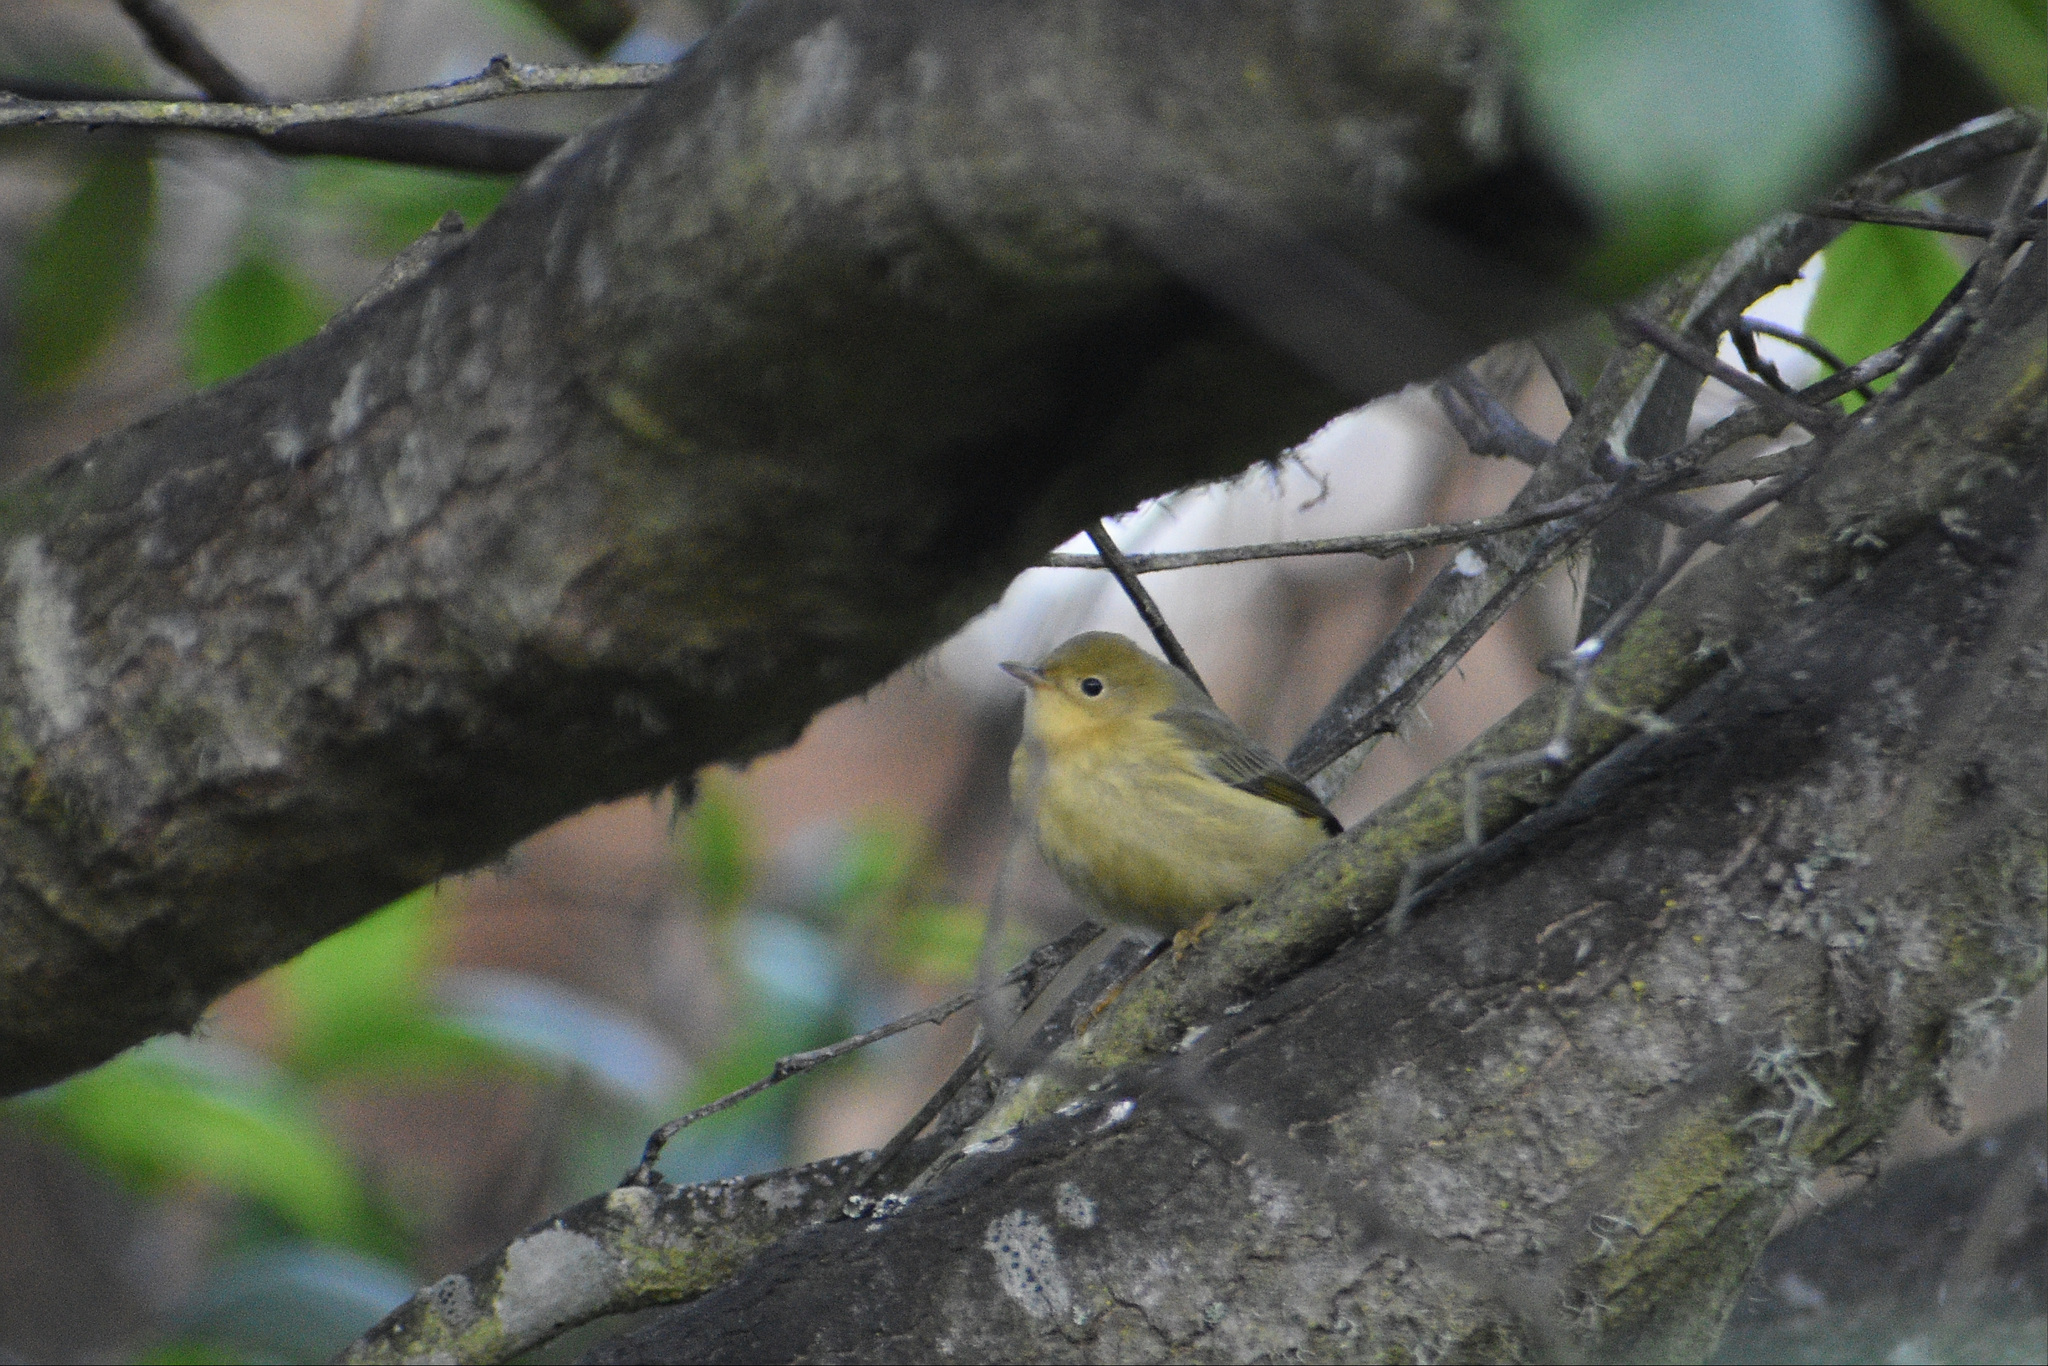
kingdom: Animalia
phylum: Chordata
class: Aves
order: Passeriformes
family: Parulidae
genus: Setophaga
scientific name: Setophaga petechia
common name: Yellow warbler
